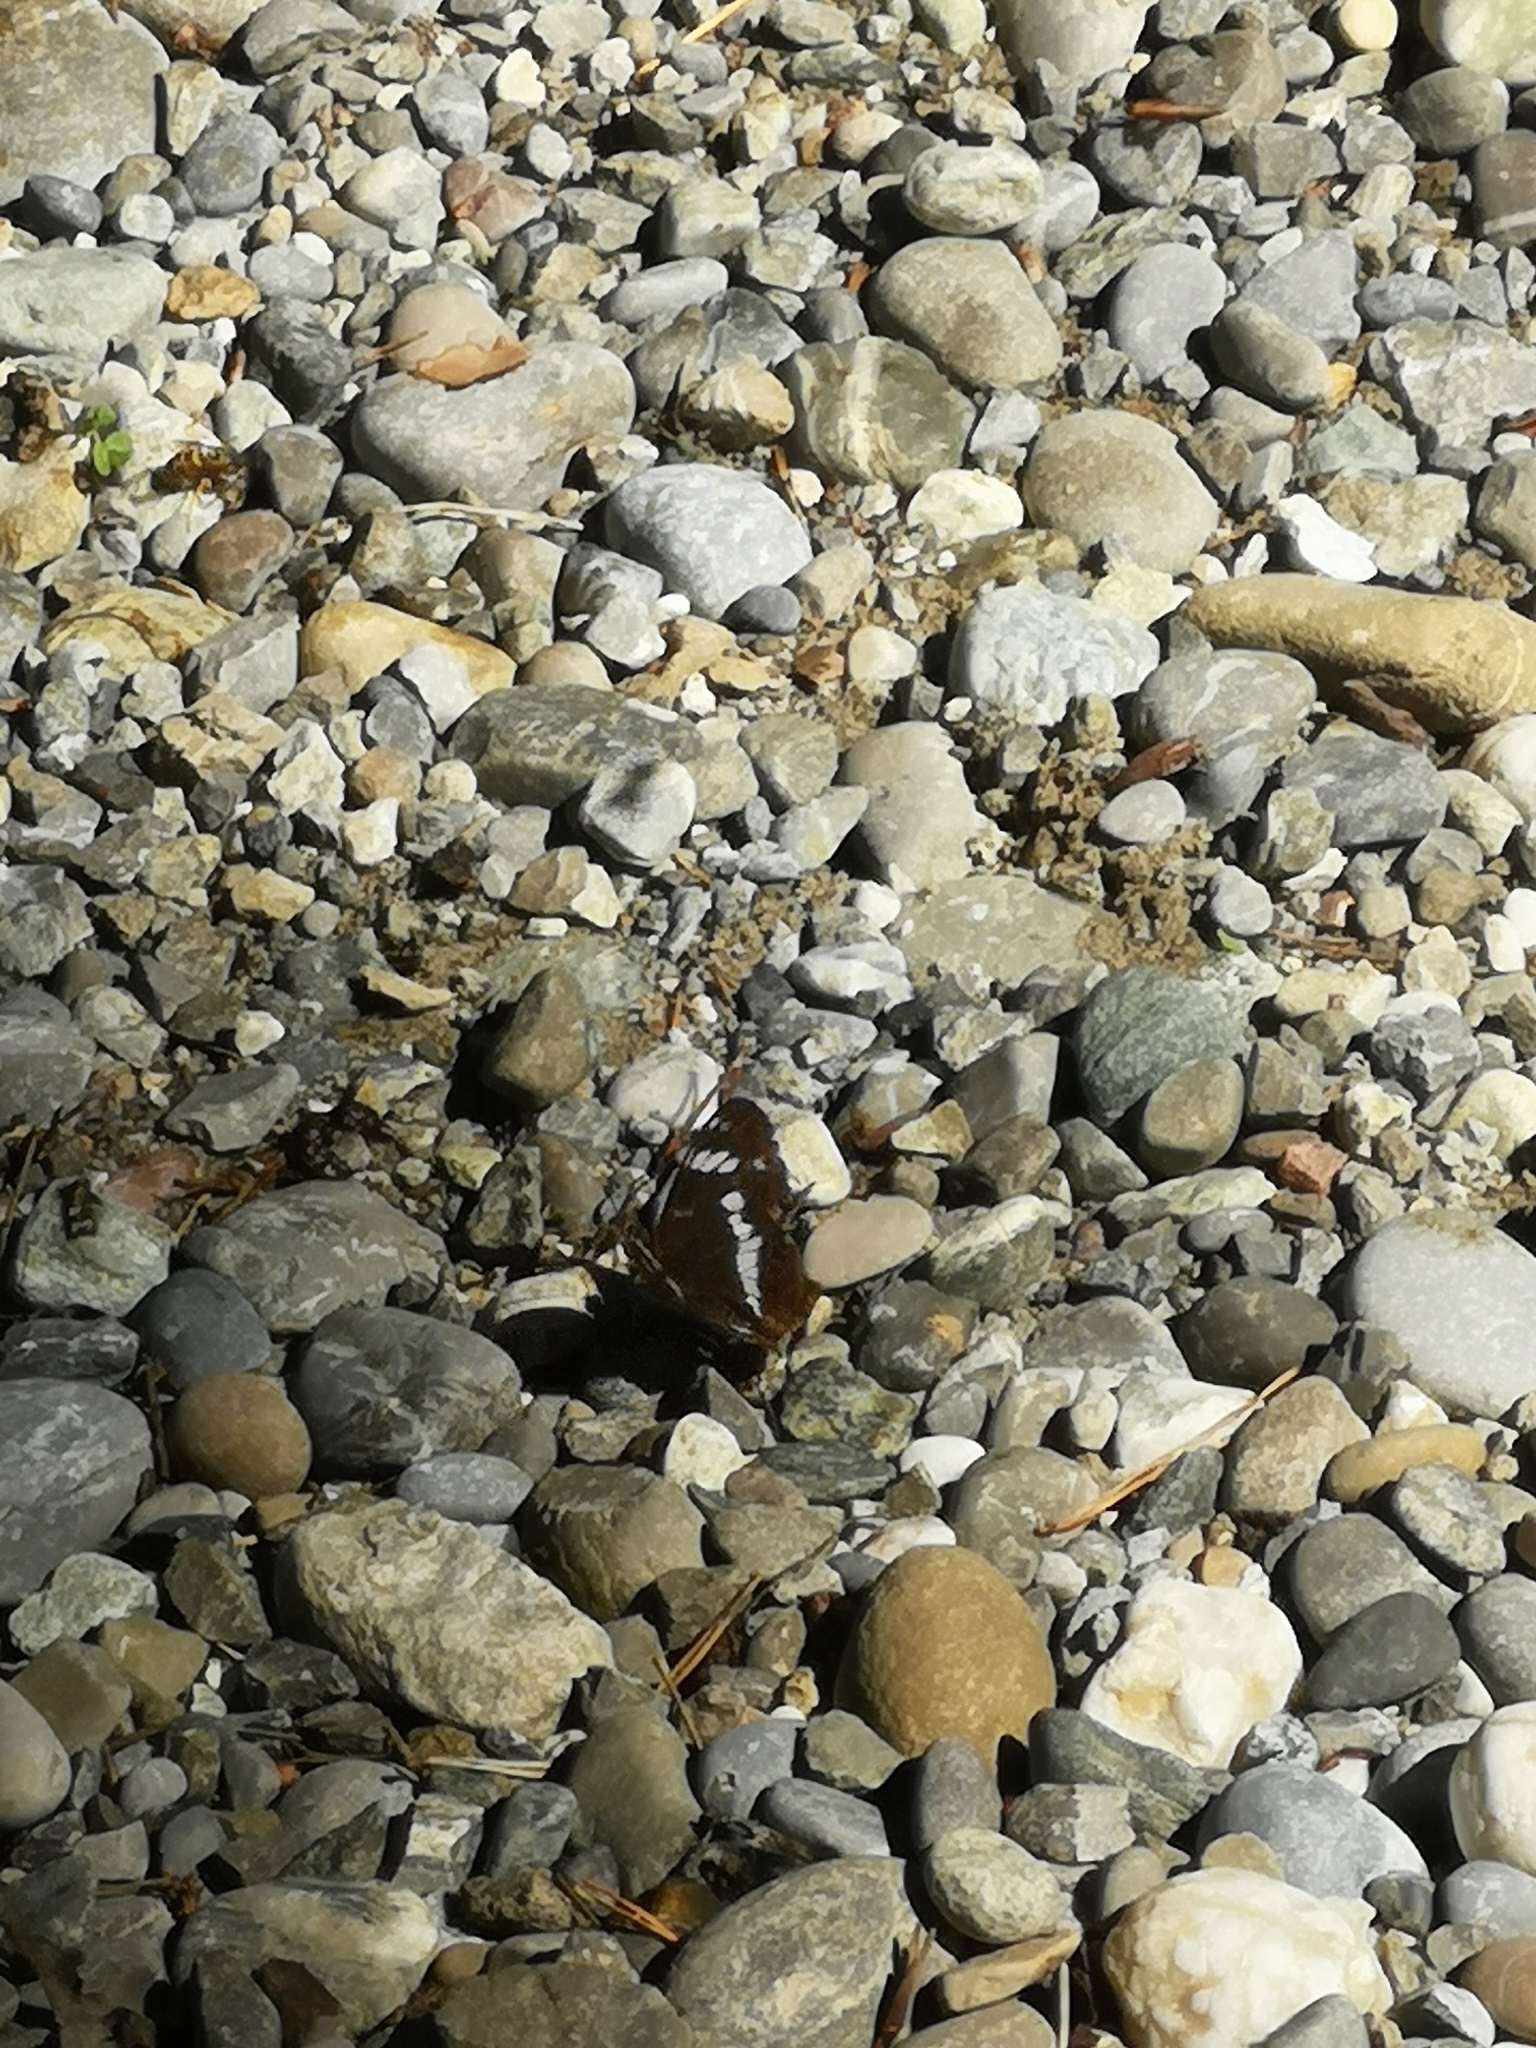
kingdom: Animalia
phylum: Arthropoda
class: Insecta
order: Lepidoptera
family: Nymphalidae
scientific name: Nymphalidae
